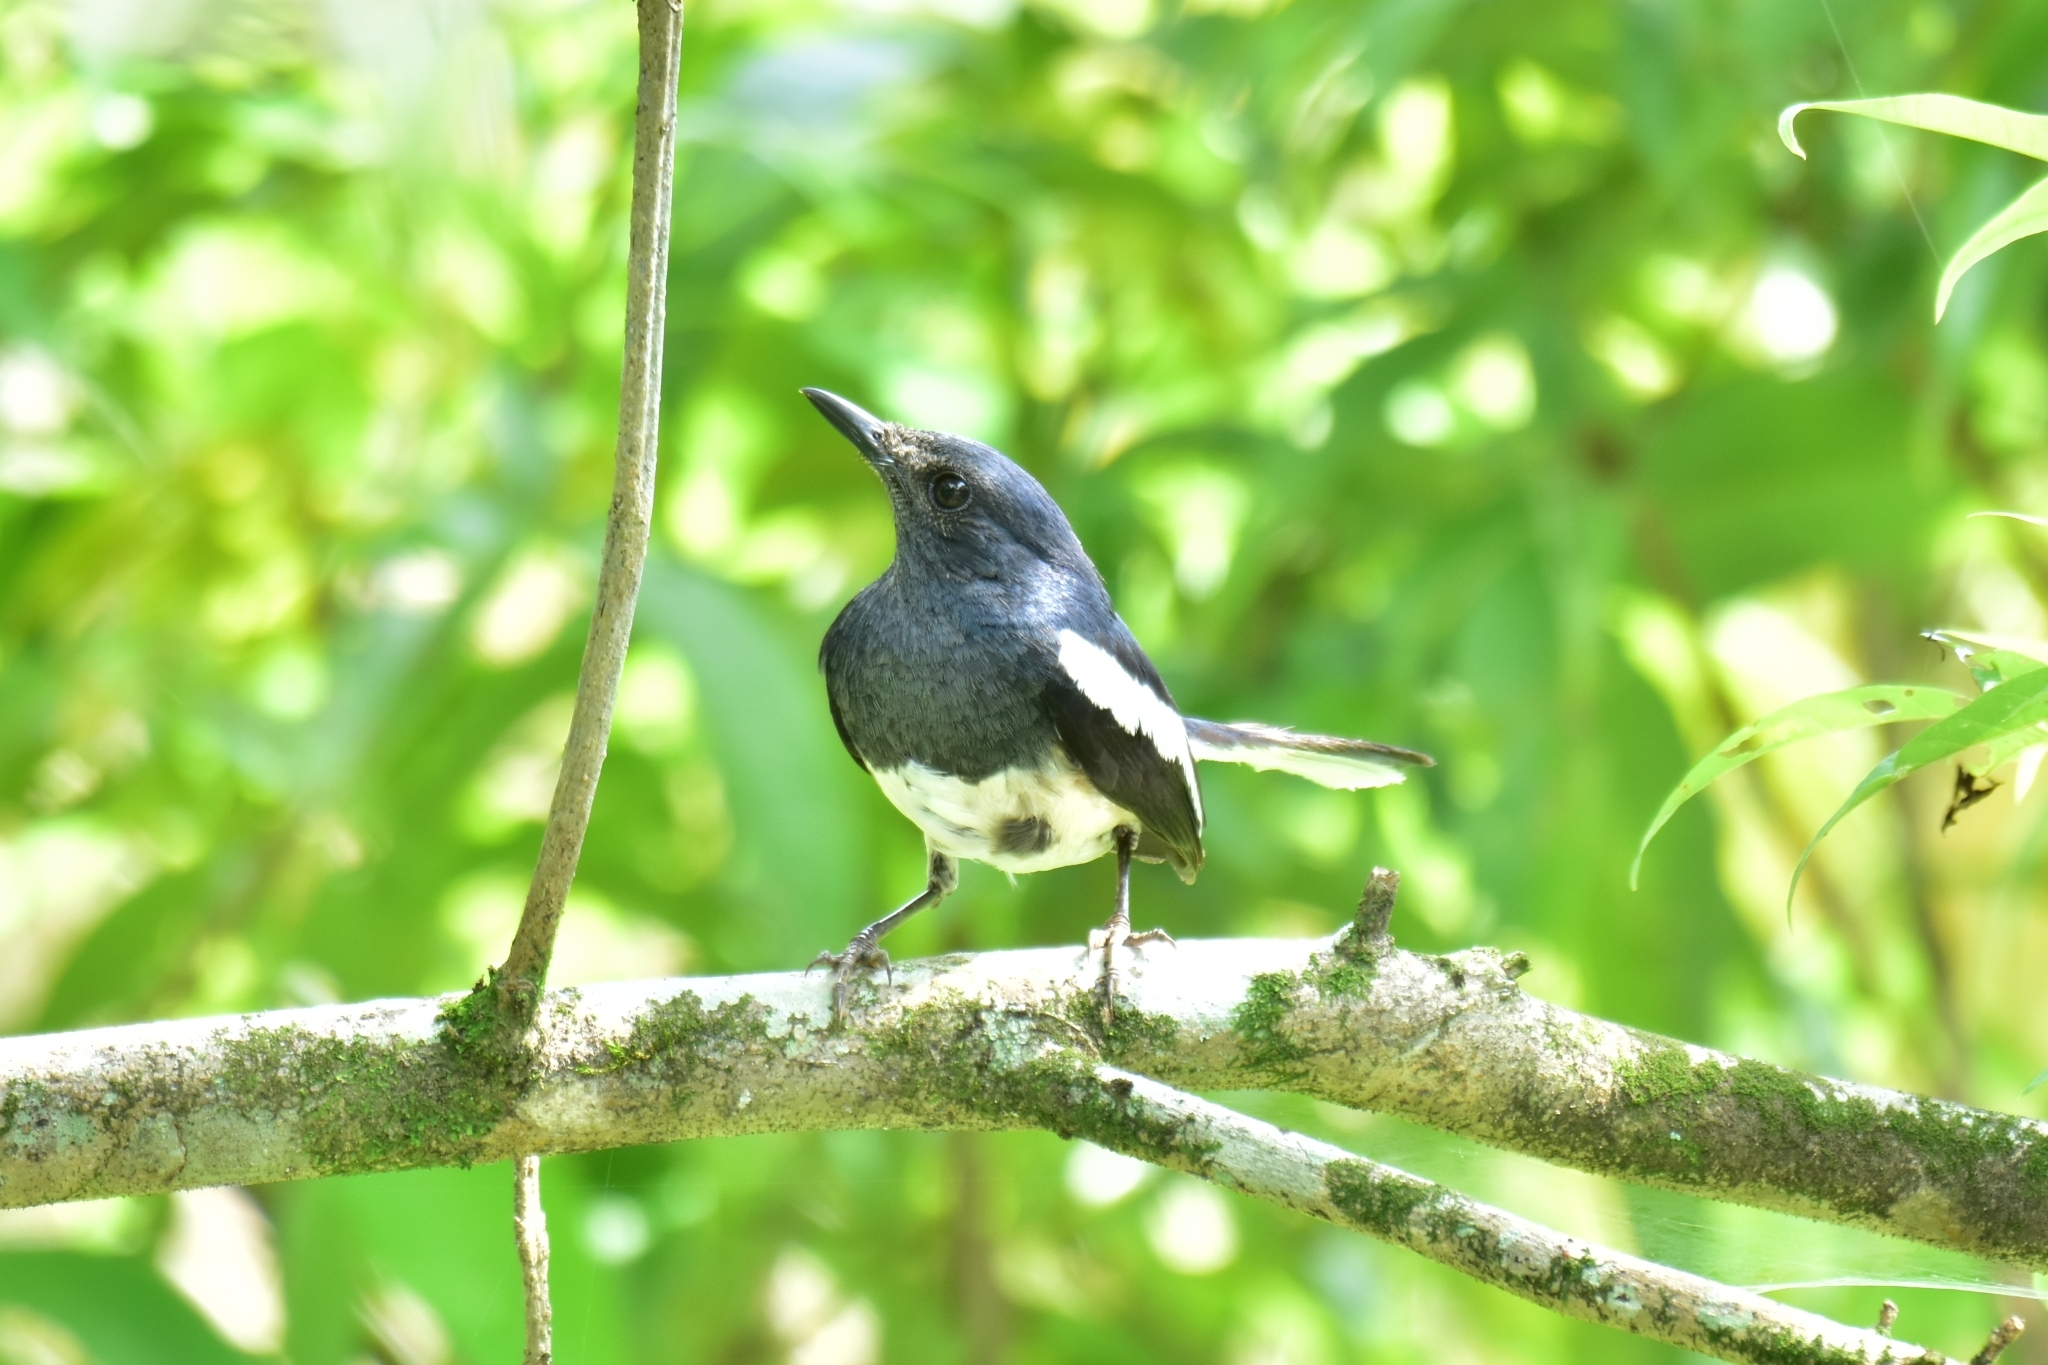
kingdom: Animalia
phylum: Chordata
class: Aves
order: Passeriformes
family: Muscicapidae
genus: Copsychus
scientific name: Copsychus saularis
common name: Oriental magpie-robin
